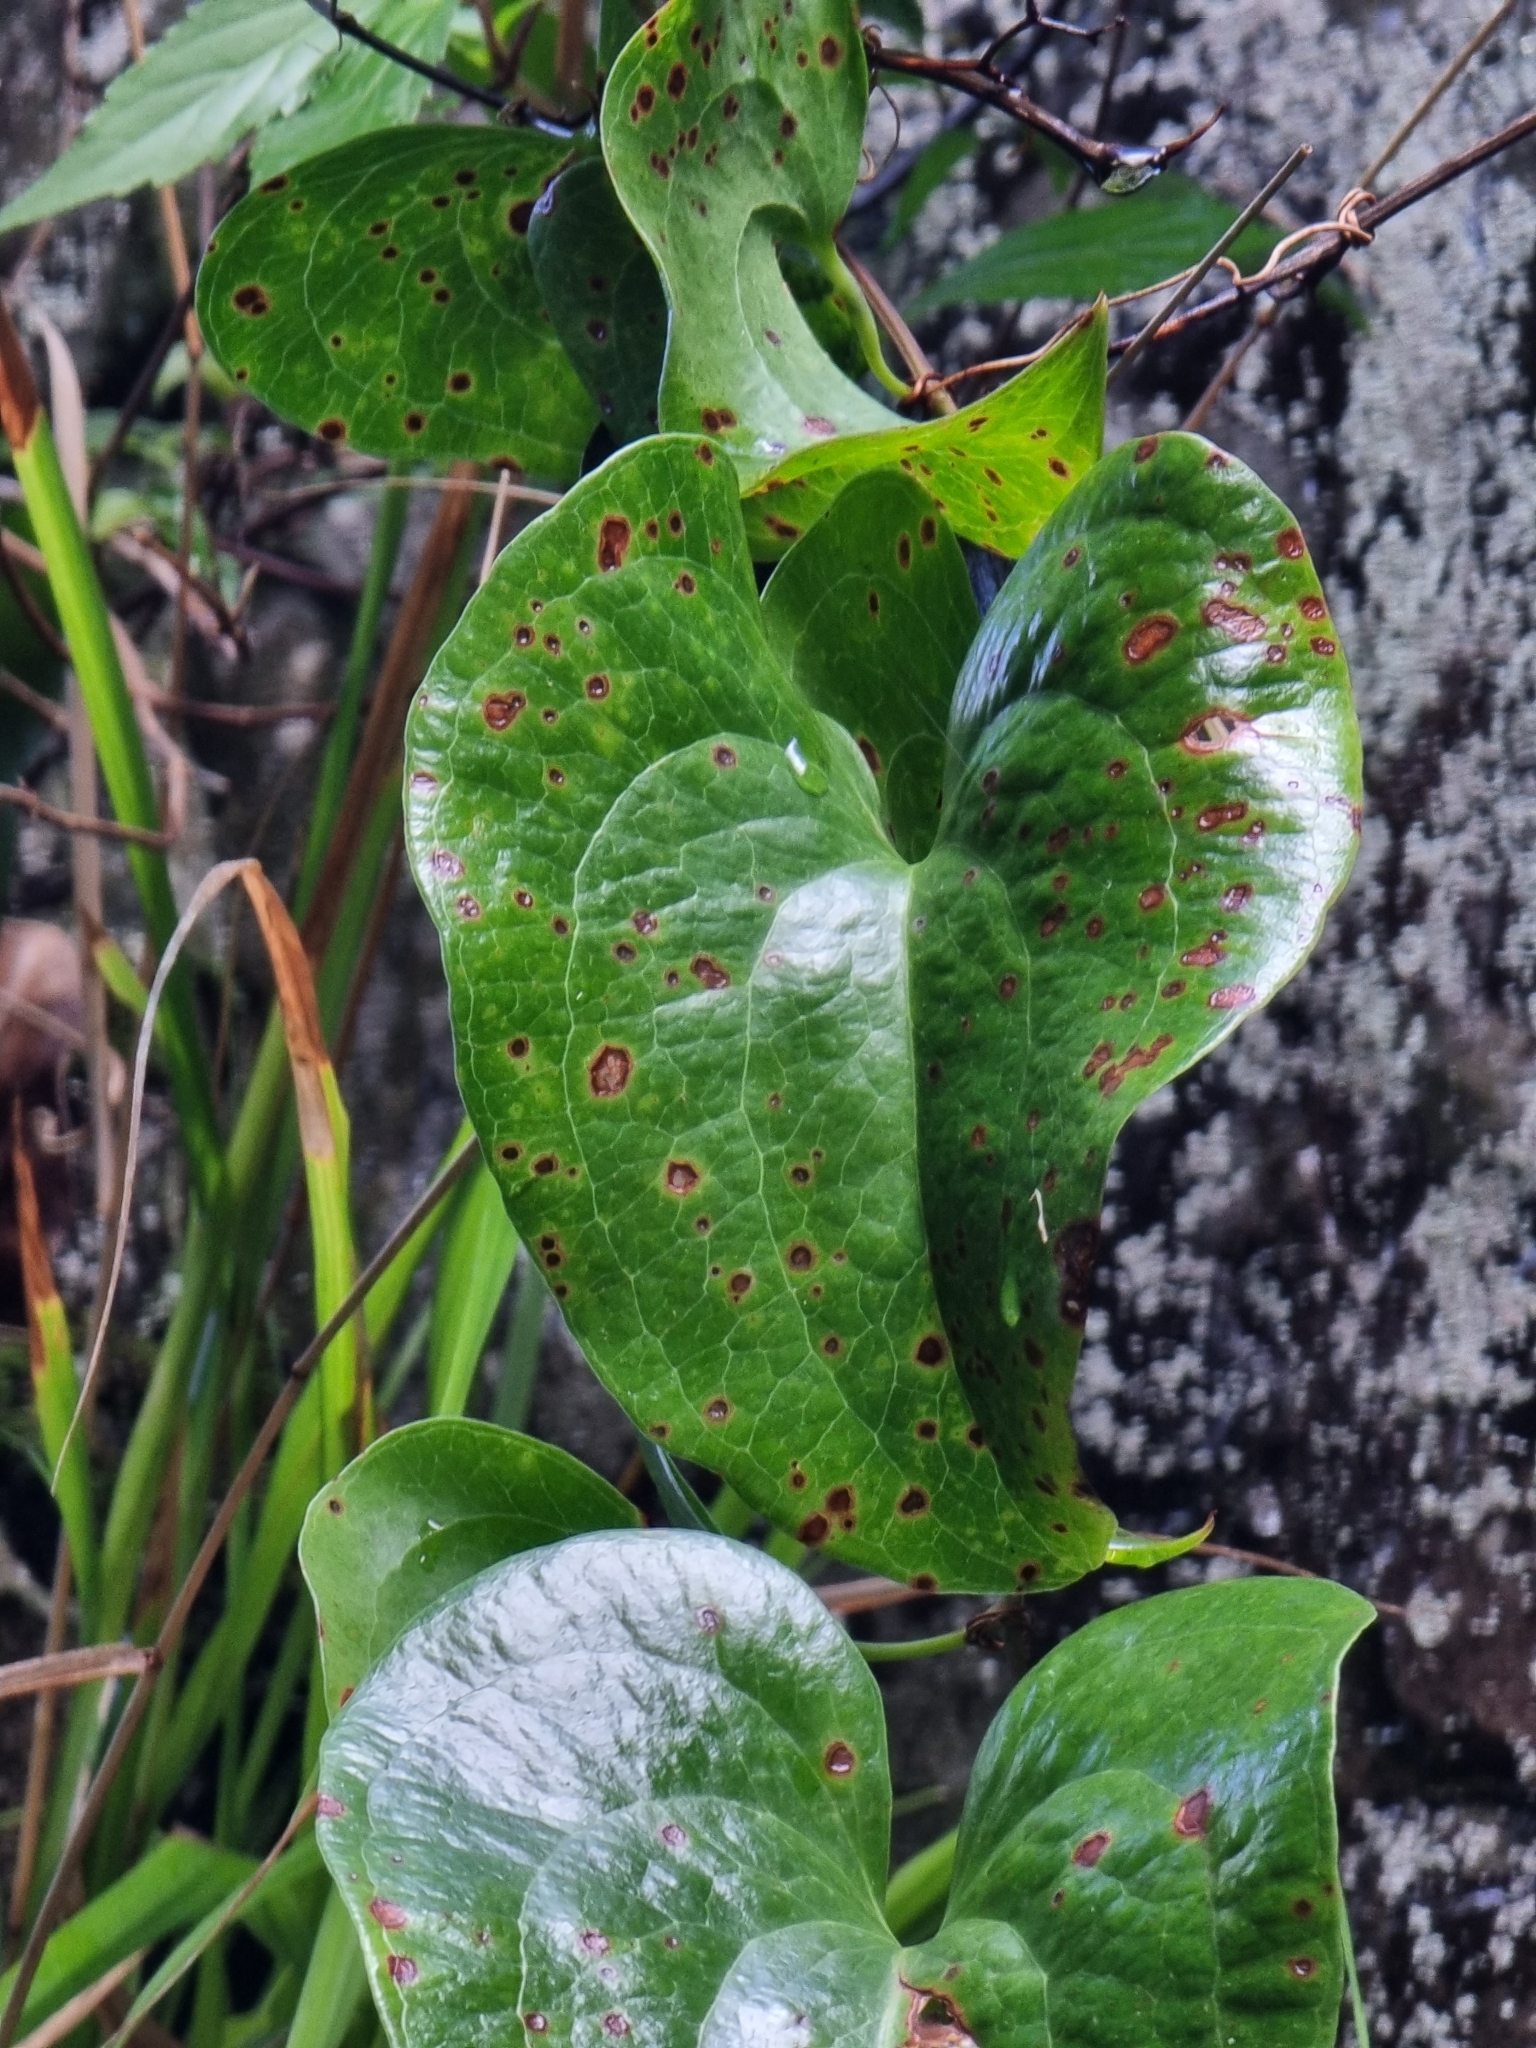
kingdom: Plantae
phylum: Tracheophyta
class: Liliopsida
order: Liliales
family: Smilacaceae
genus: Smilax
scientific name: Smilax aspera
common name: Common smilax
